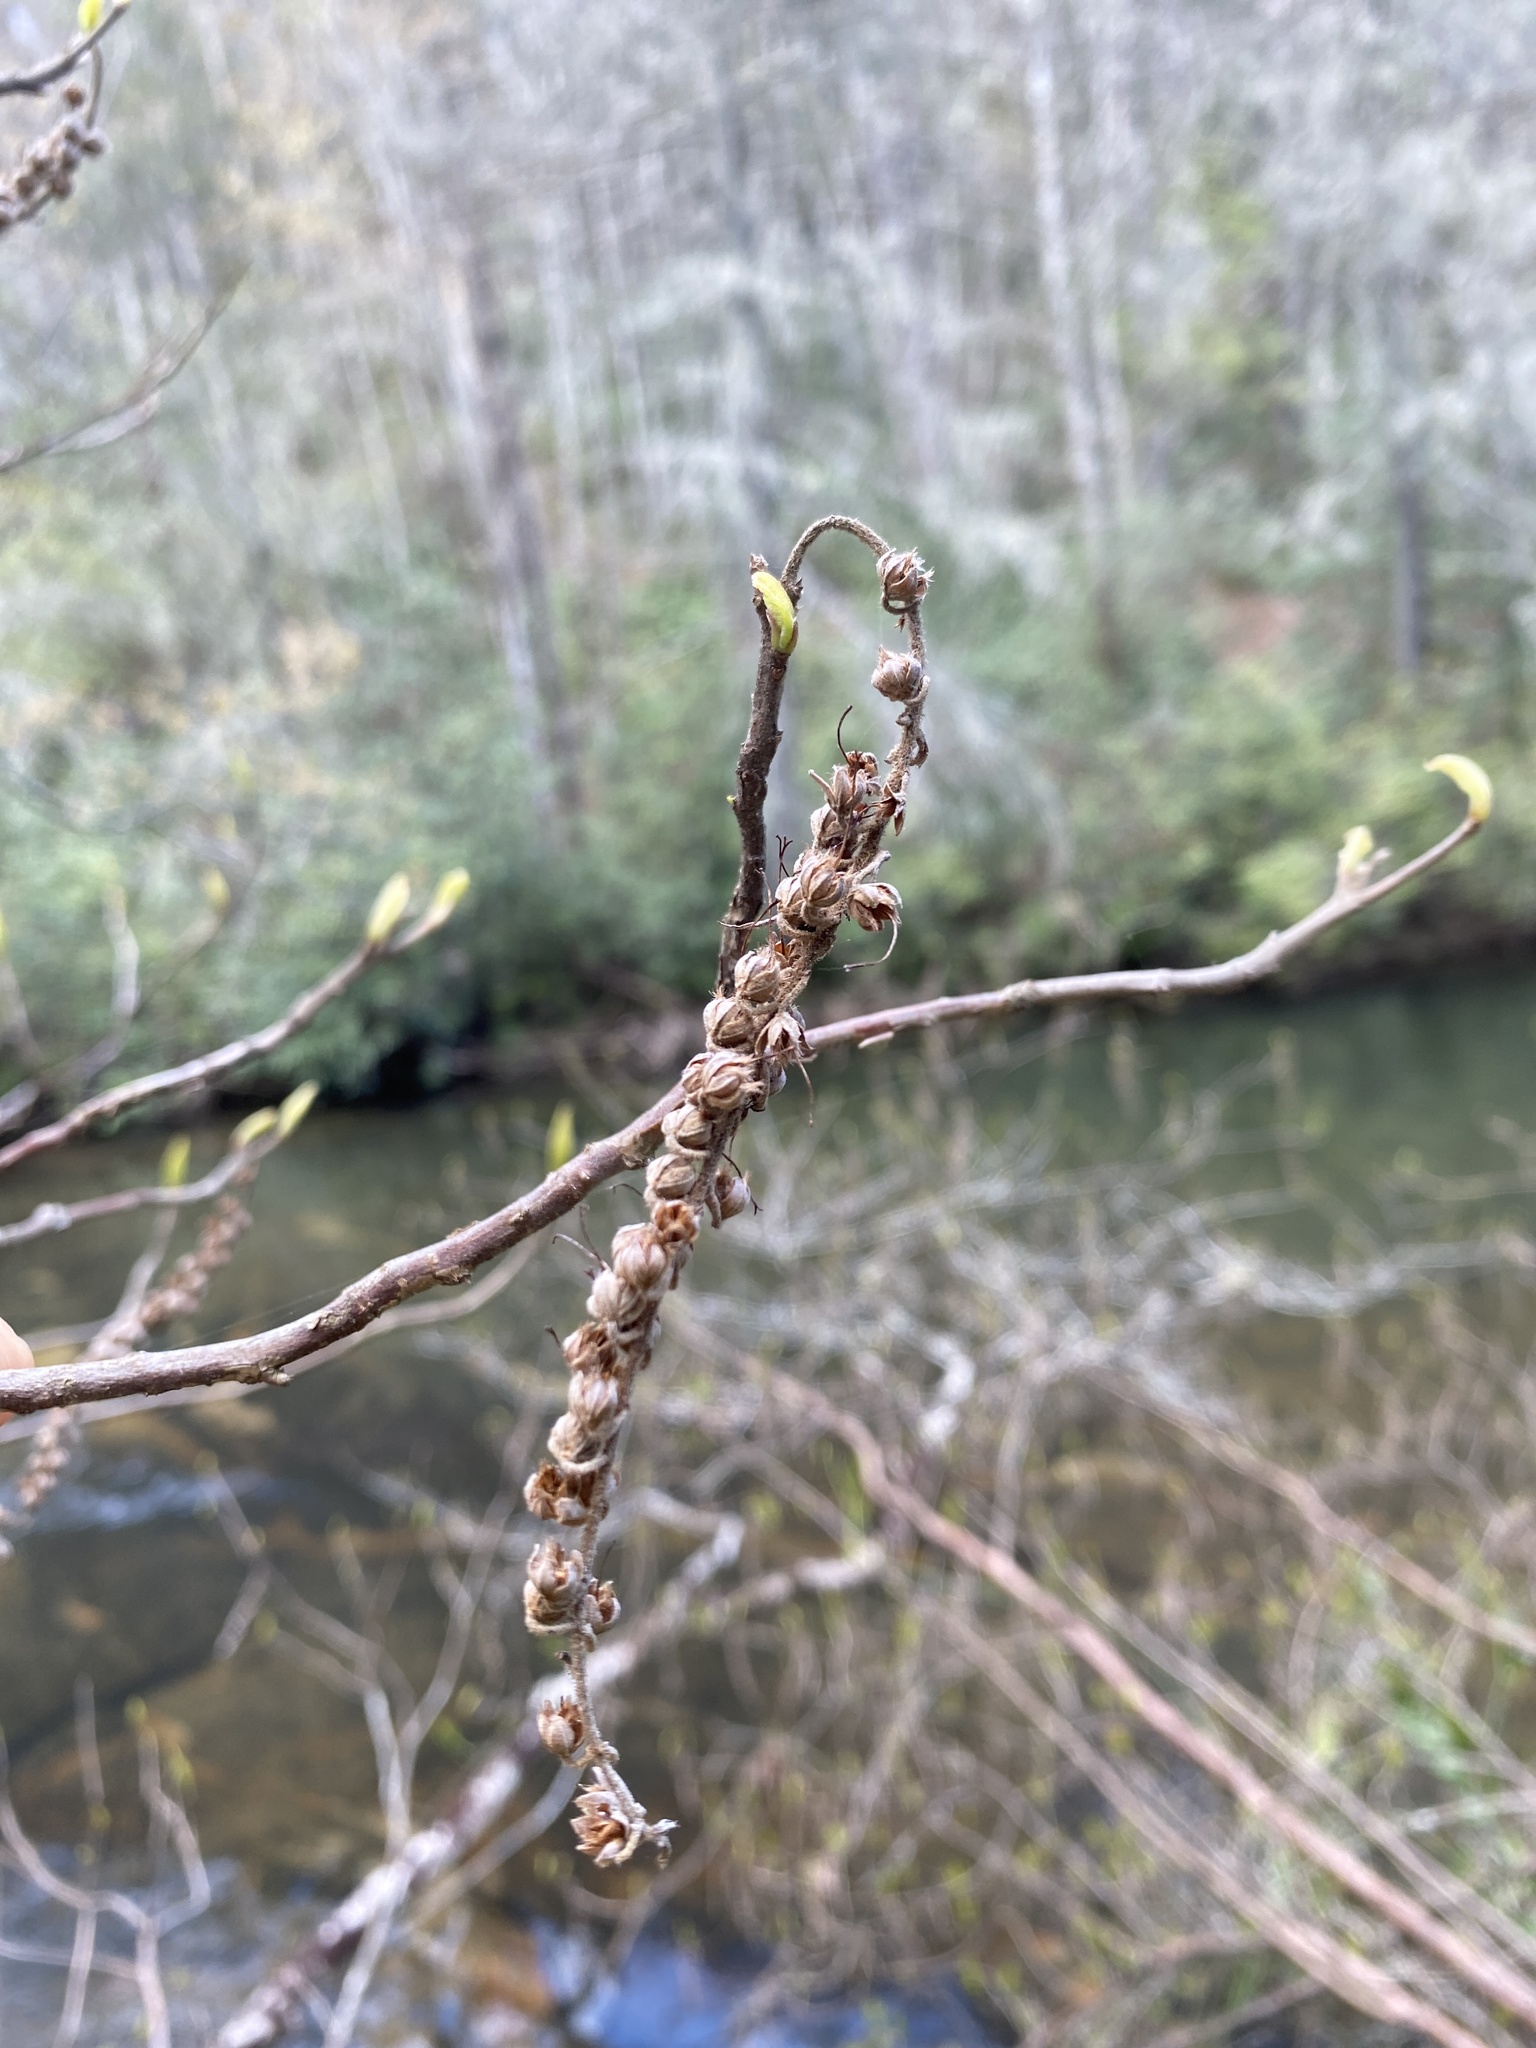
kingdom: Plantae
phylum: Tracheophyta
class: Magnoliopsida
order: Ericales
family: Clethraceae
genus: Clethra
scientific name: Clethra acuminata
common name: Mountain sweet pepperbush
